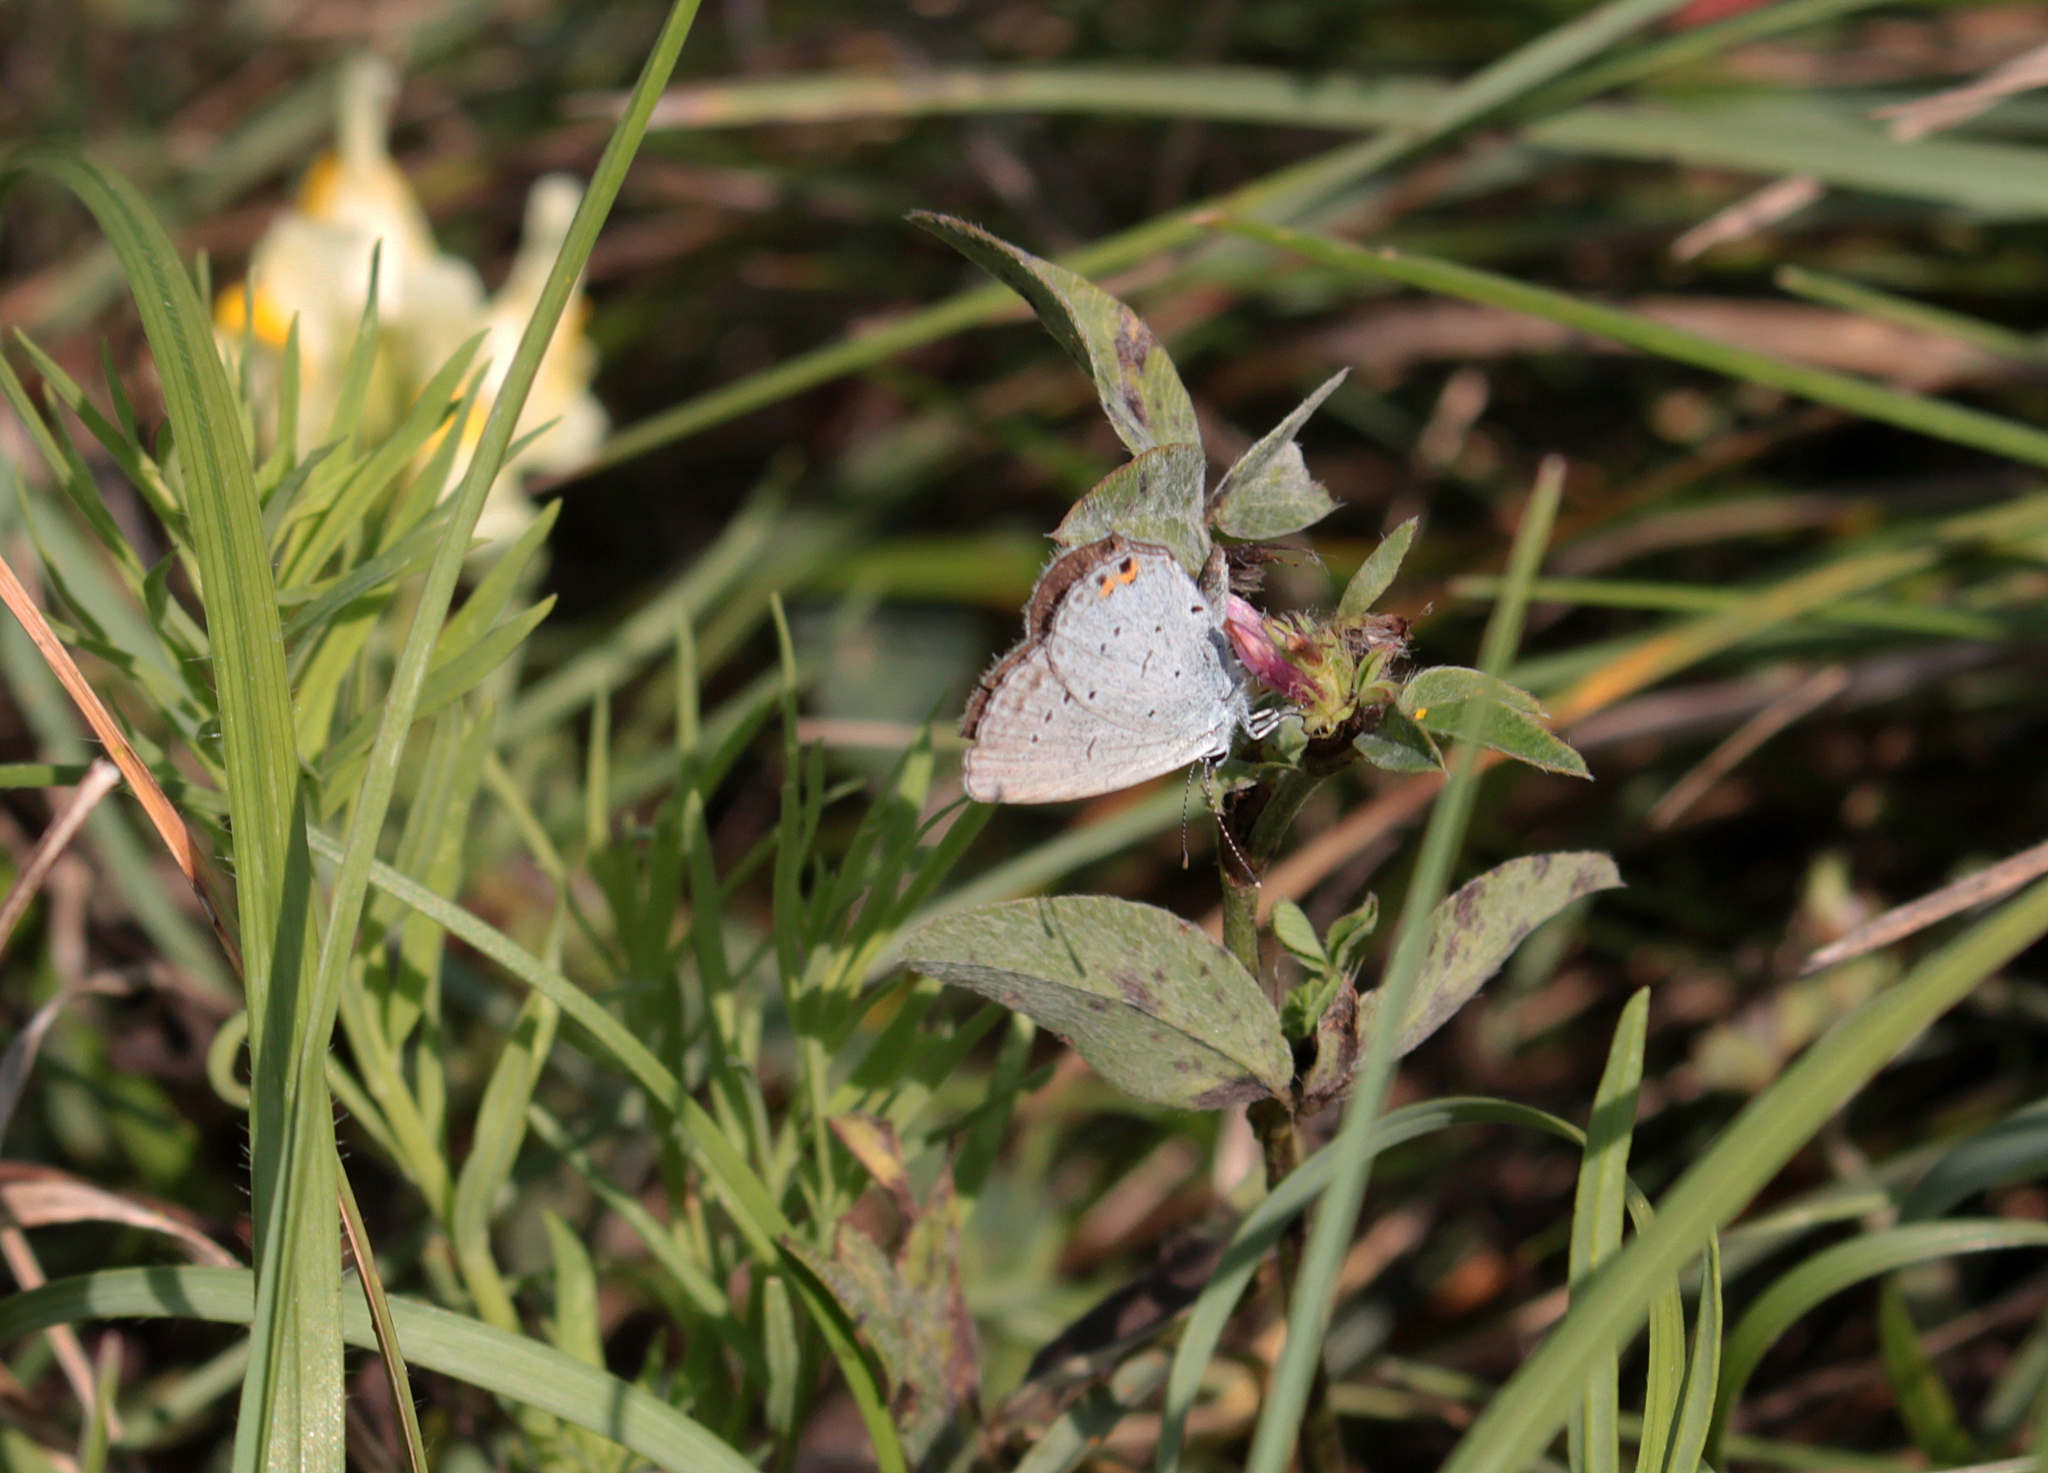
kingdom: Animalia
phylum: Arthropoda
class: Insecta
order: Lepidoptera
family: Lycaenidae
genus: Elkalyce
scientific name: Elkalyce argiades
